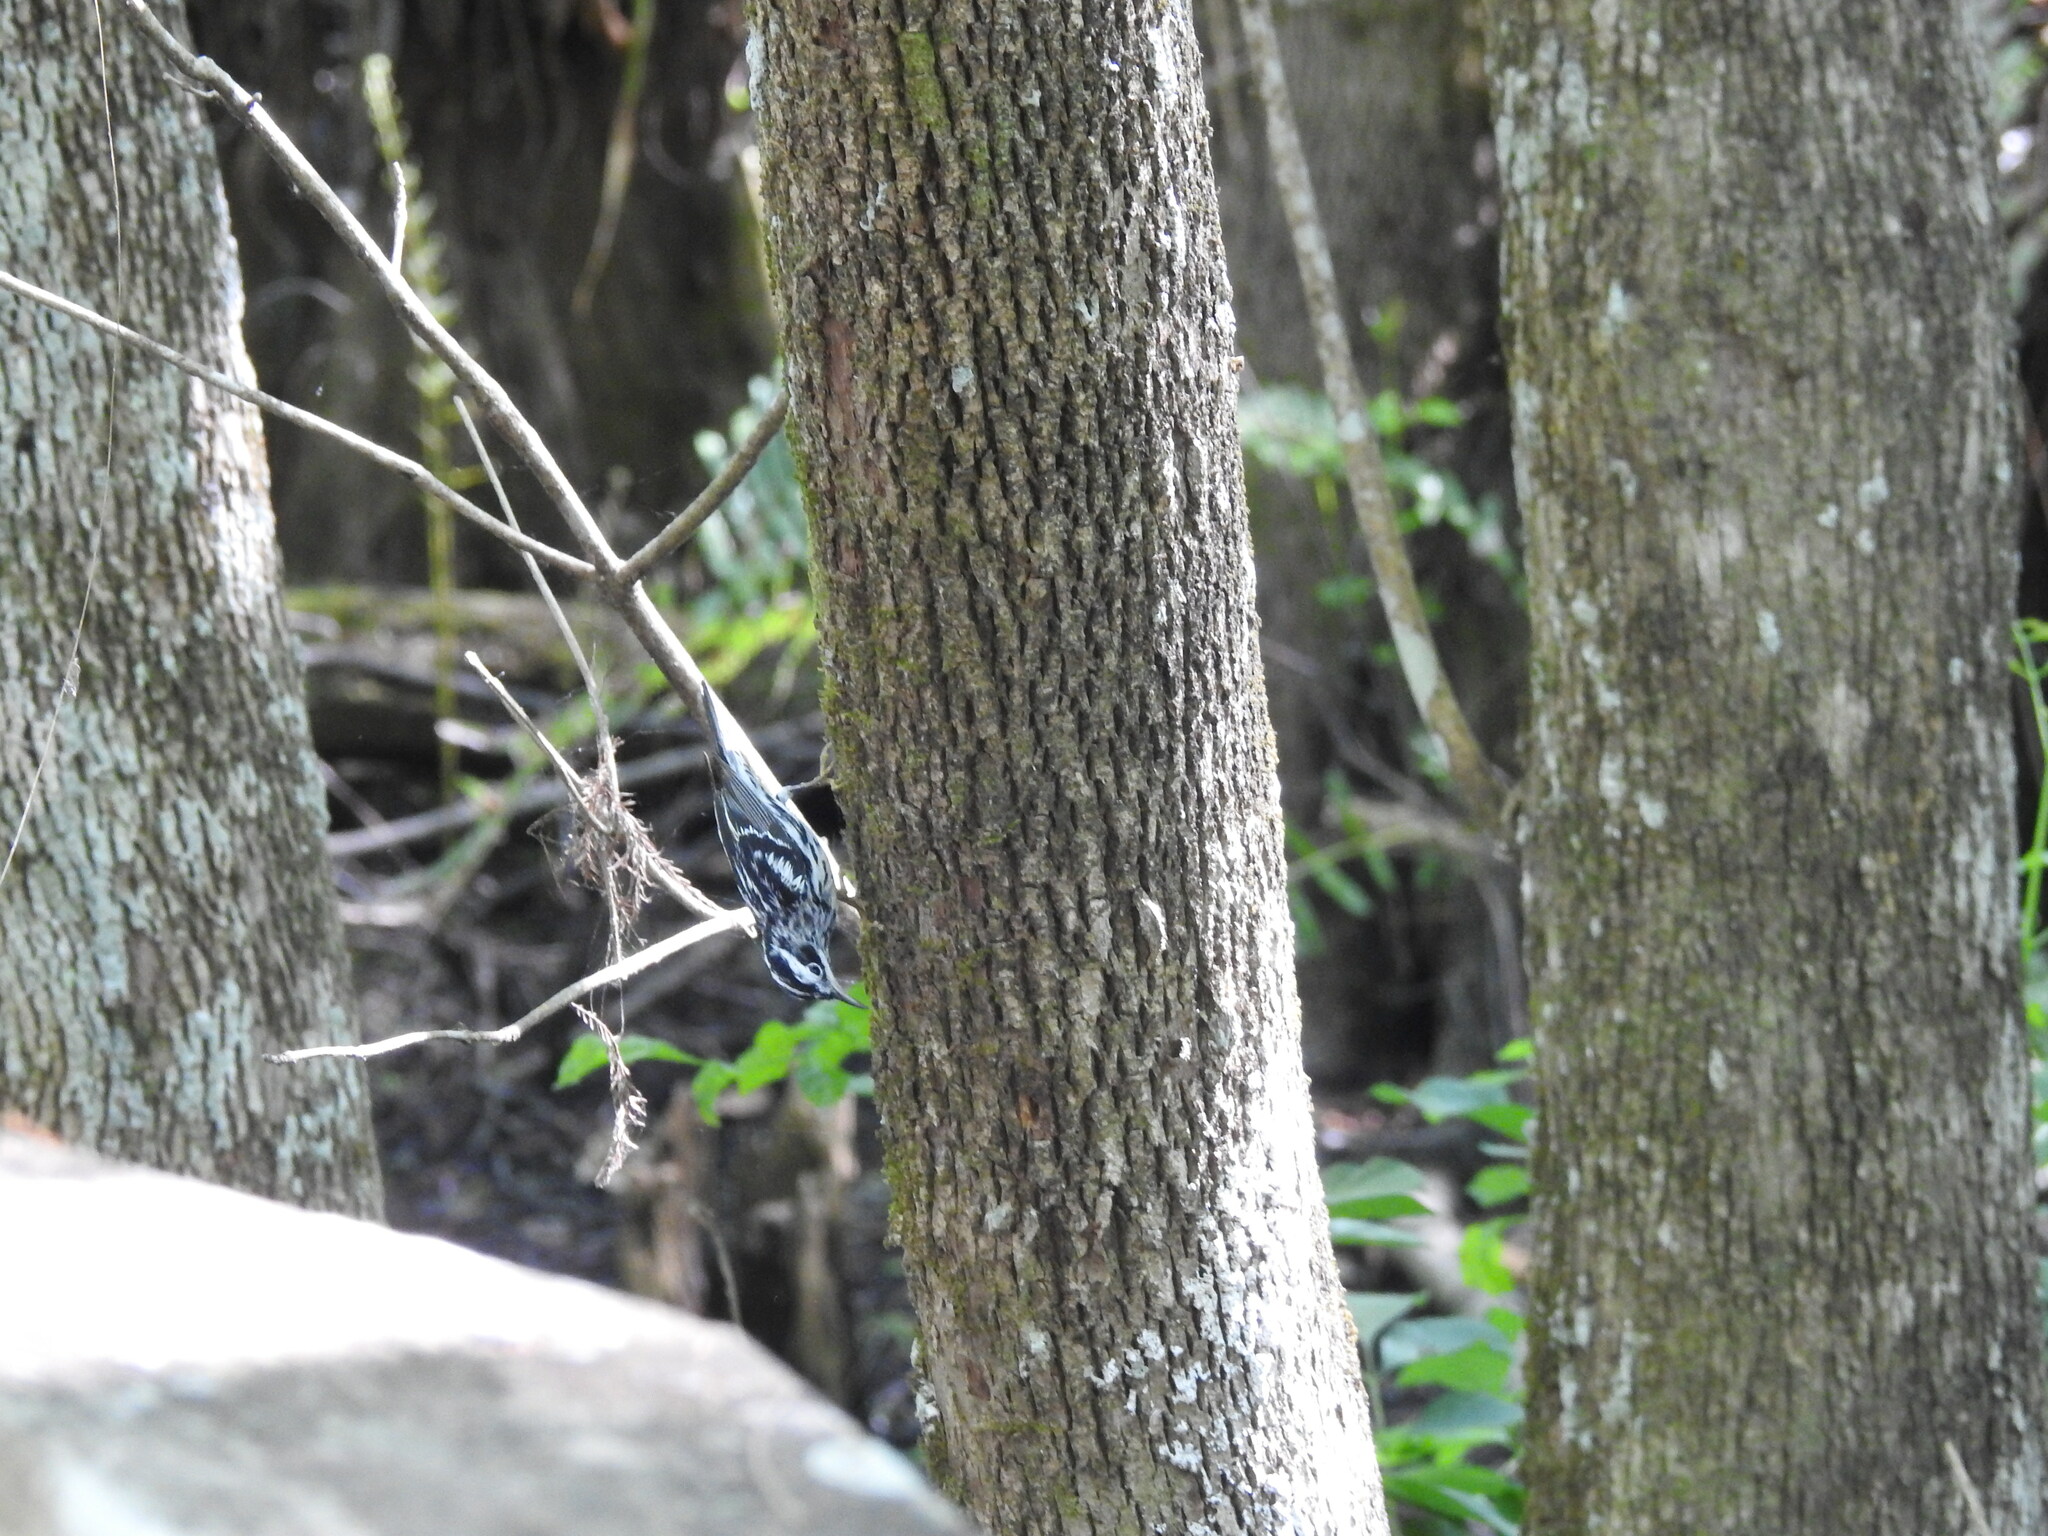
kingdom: Animalia
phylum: Chordata
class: Aves
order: Passeriformes
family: Parulidae
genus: Mniotilta
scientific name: Mniotilta varia
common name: Black-and-white warbler
